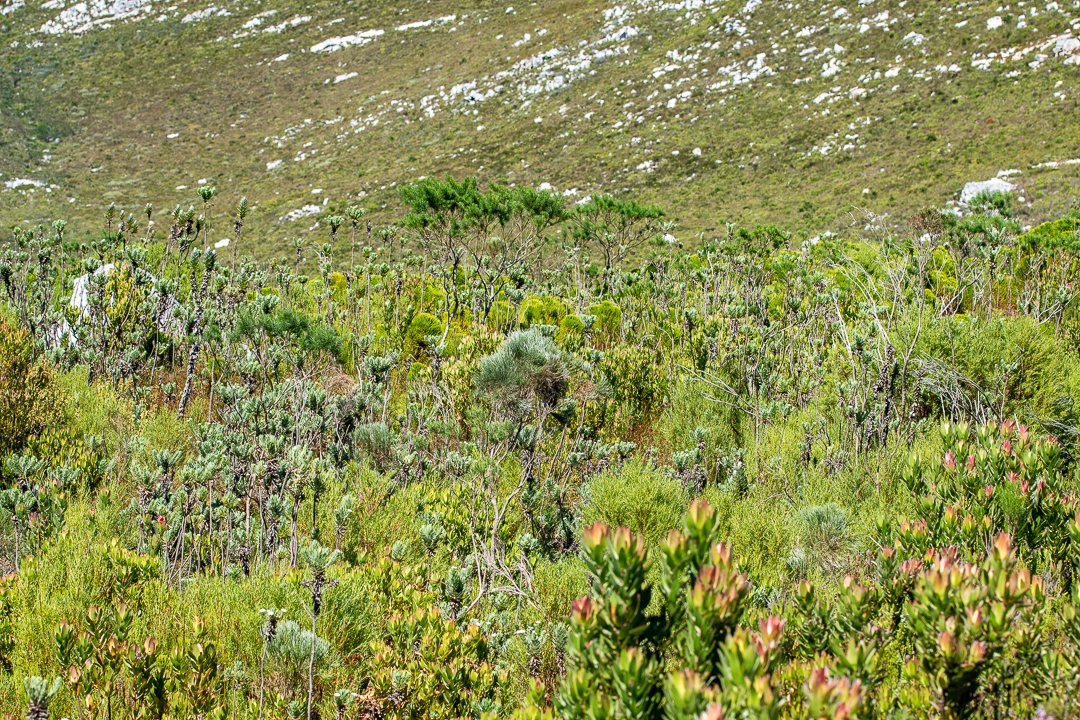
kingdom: Plantae
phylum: Tracheophyta
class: Magnoliopsida
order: Fabales
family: Fabaceae
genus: Psoralea
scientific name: Psoralea aphylla
